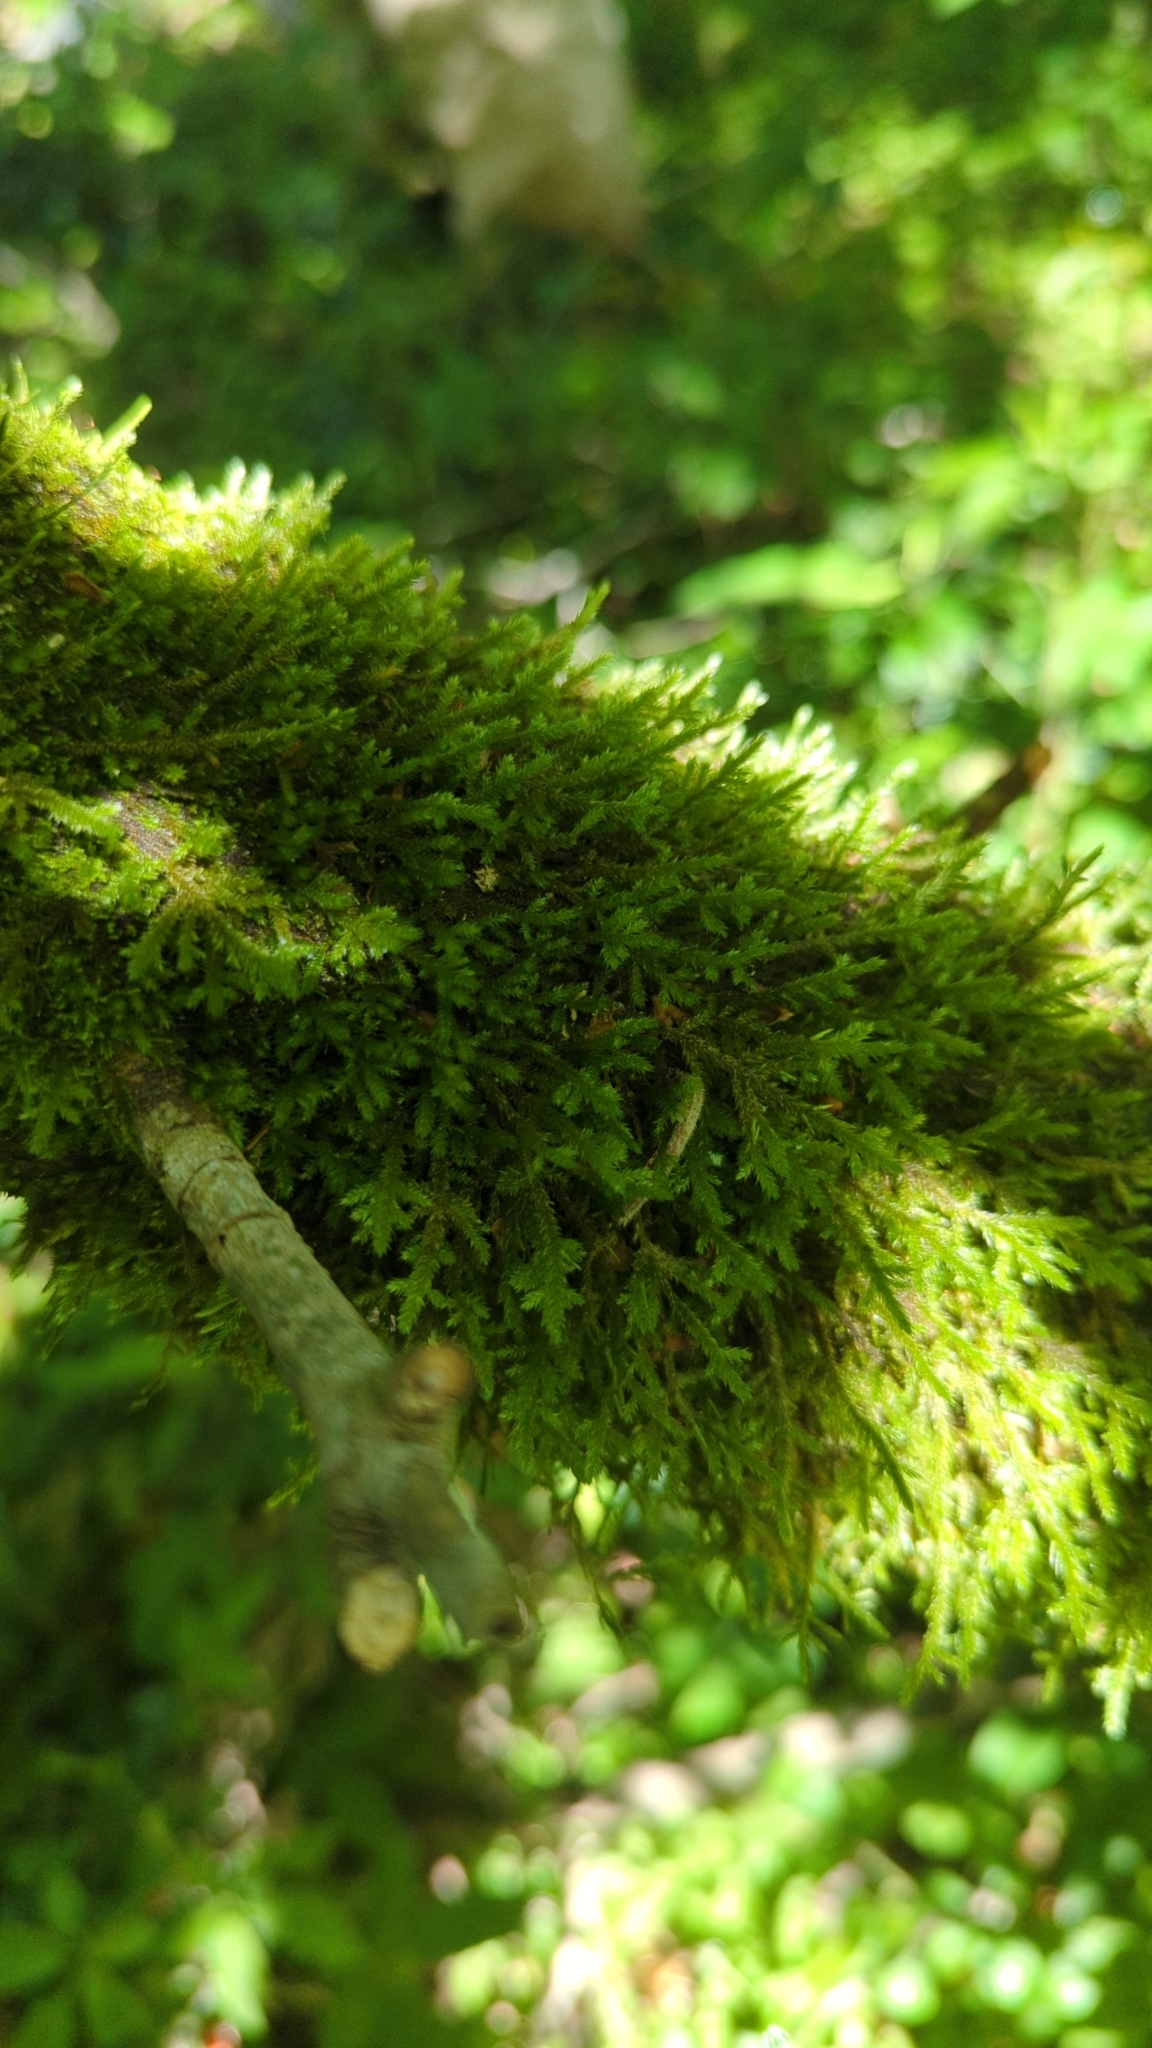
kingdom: Plantae
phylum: Bryophyta
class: Bryopsida
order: Hypnales
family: Neckeraceae
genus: Forsstroemia
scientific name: Forsstroemia trichomitria
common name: Fan moss
